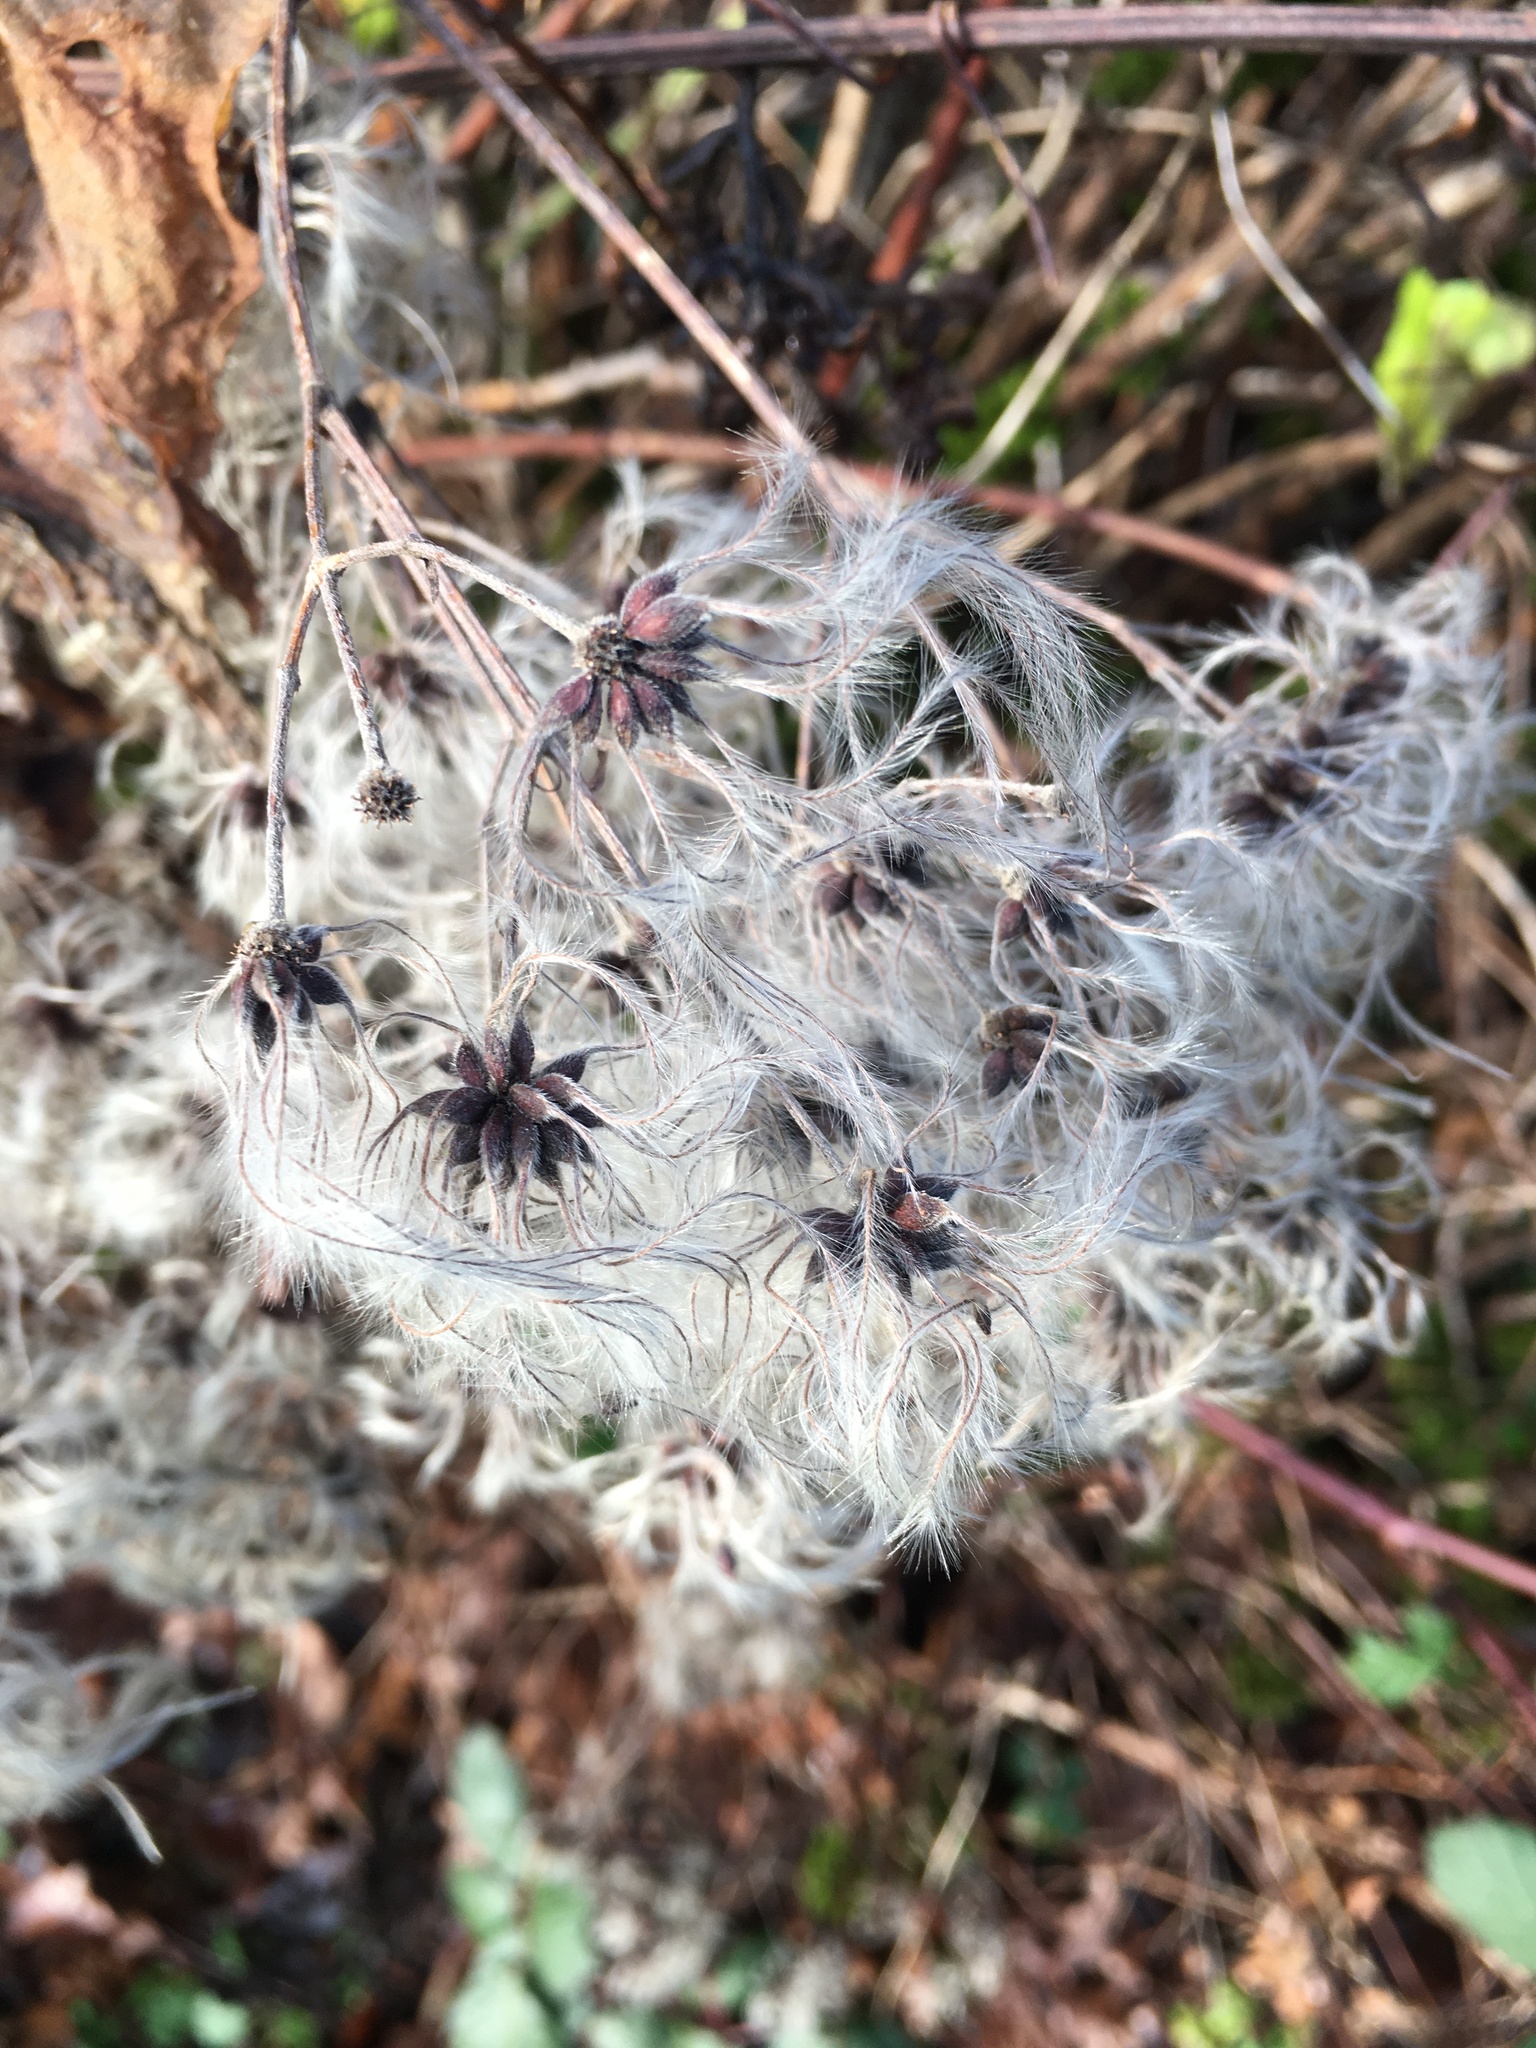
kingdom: Plantae
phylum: Tracheophyta
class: Magnoliopsida
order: Ranunculales
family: Ranunculaceae
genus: Clematis
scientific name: Clematis vitalba
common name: Evergreen clematis
